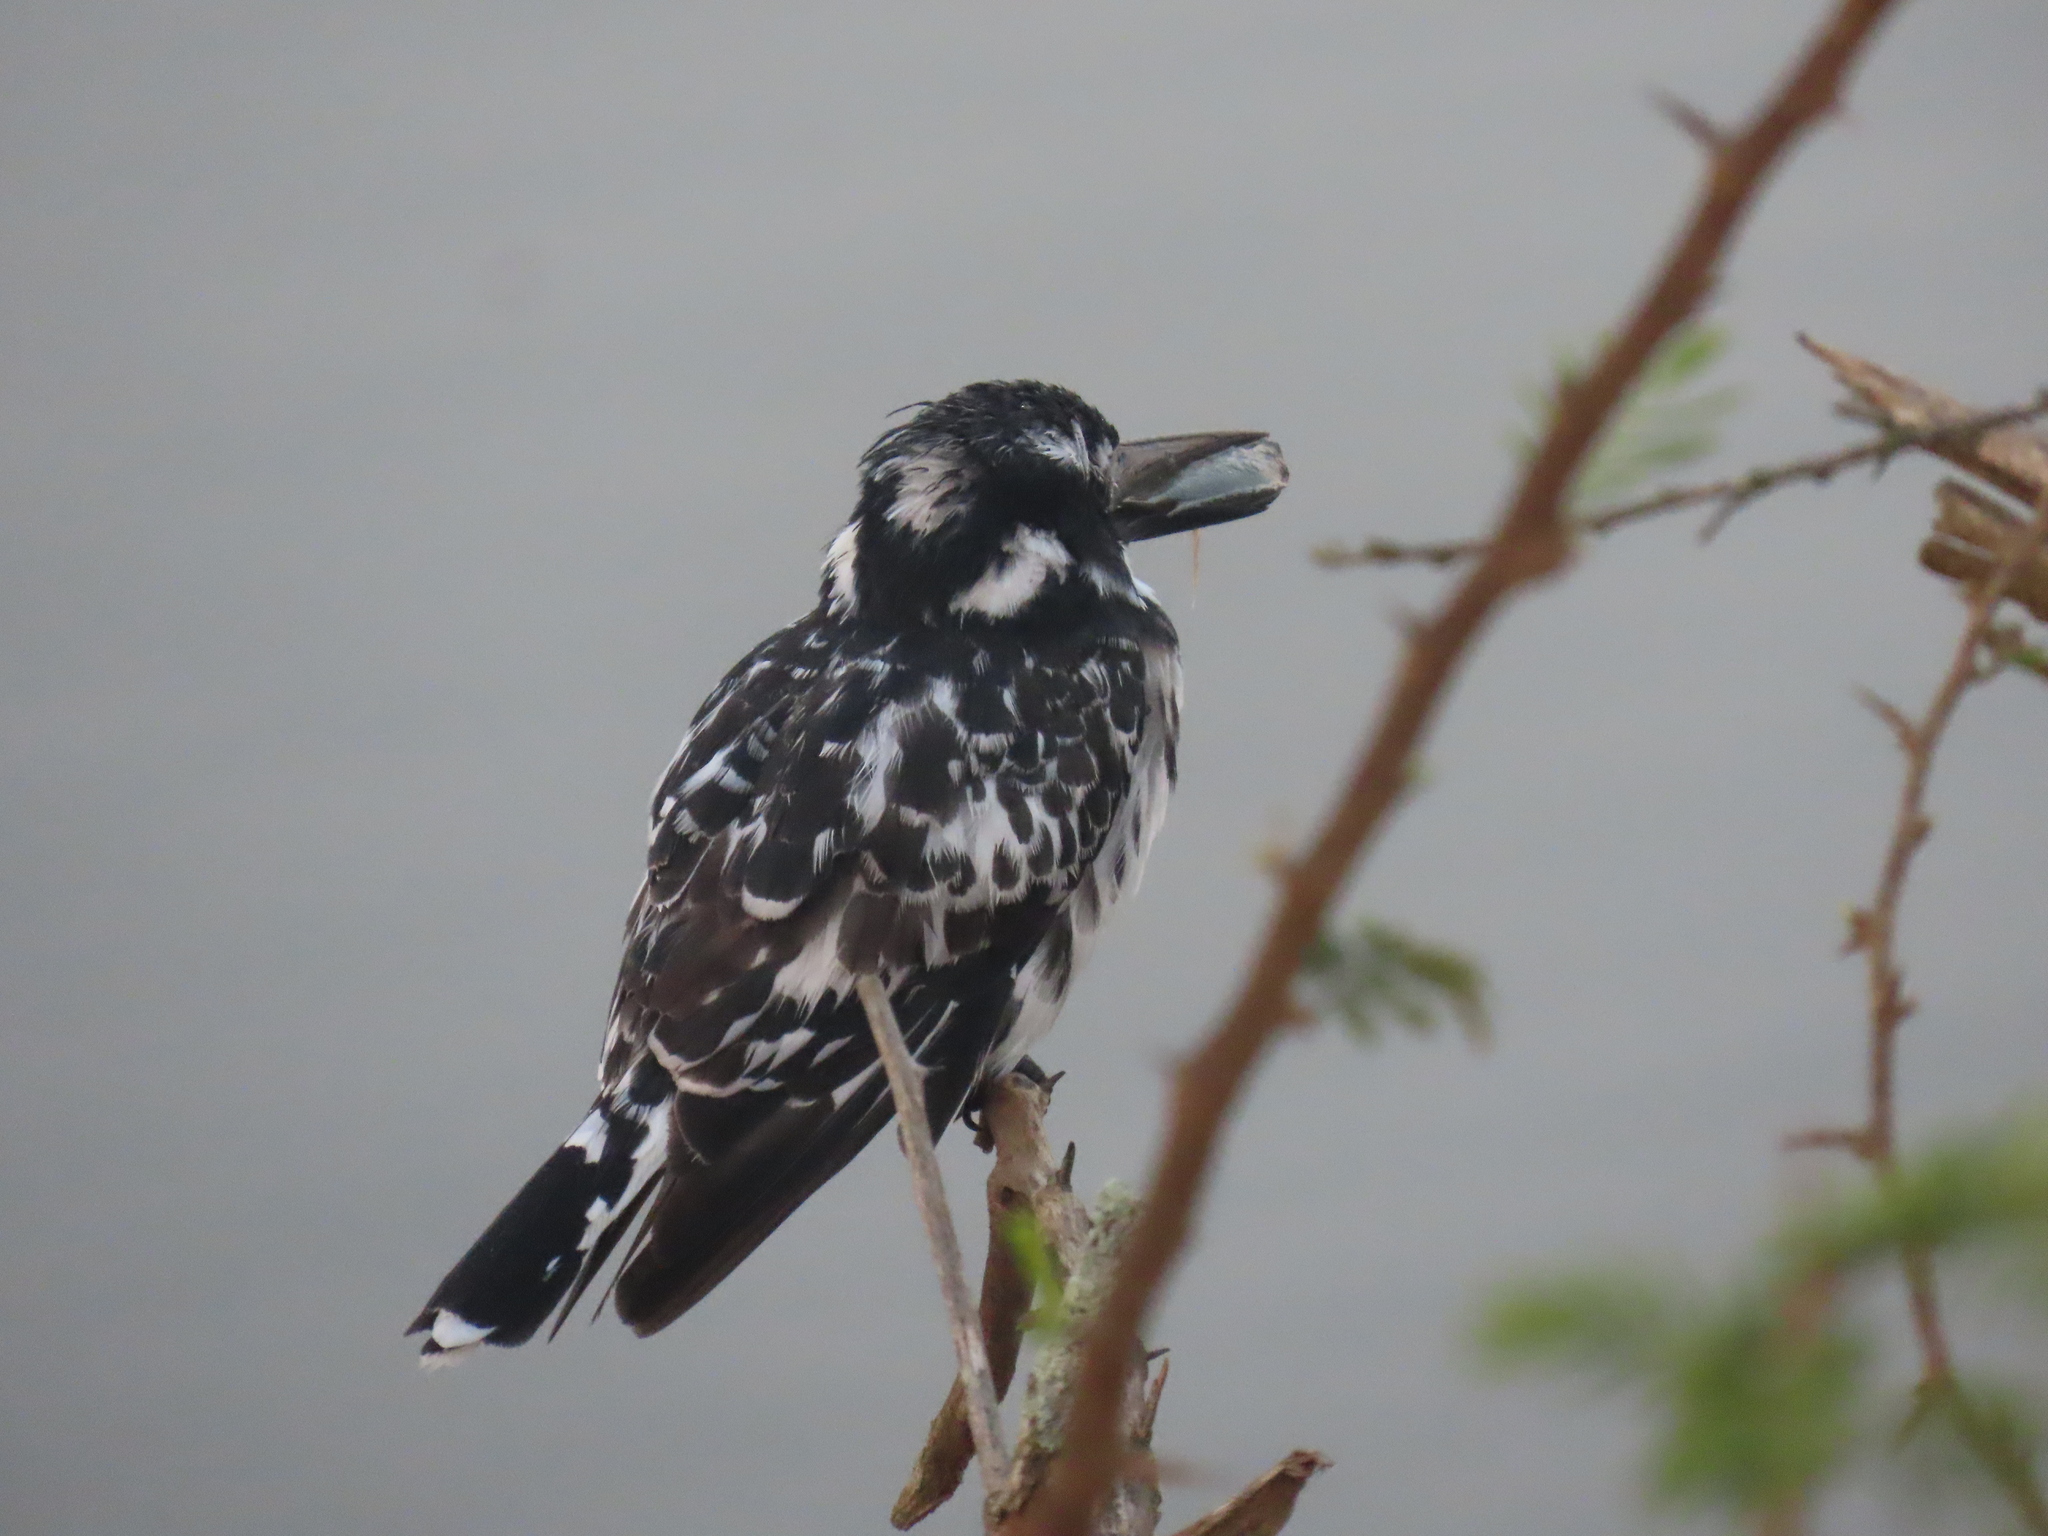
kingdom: Animalia
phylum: Chordata
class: Aves
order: Coraciiformes
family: Alcedinidae
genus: Ceryle
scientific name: Ceryle rudis
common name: Pied kingfisher
